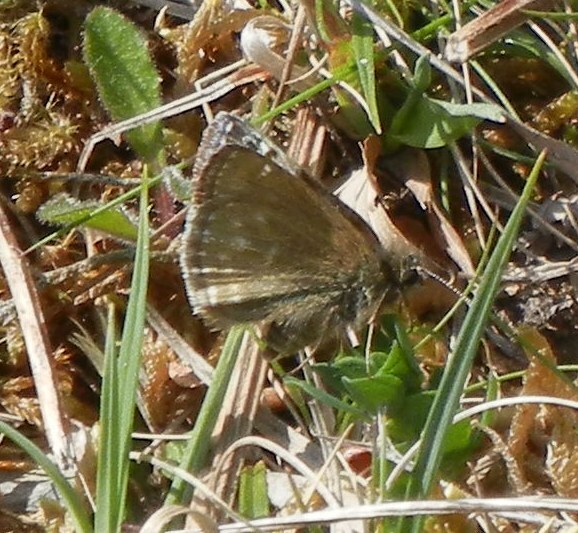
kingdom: Animalia
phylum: Arthropoda
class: Insecta
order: Lepidoptera
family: Hesperiidae
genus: Erynnis
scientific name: Erynnis tages
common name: Dingy skipper
